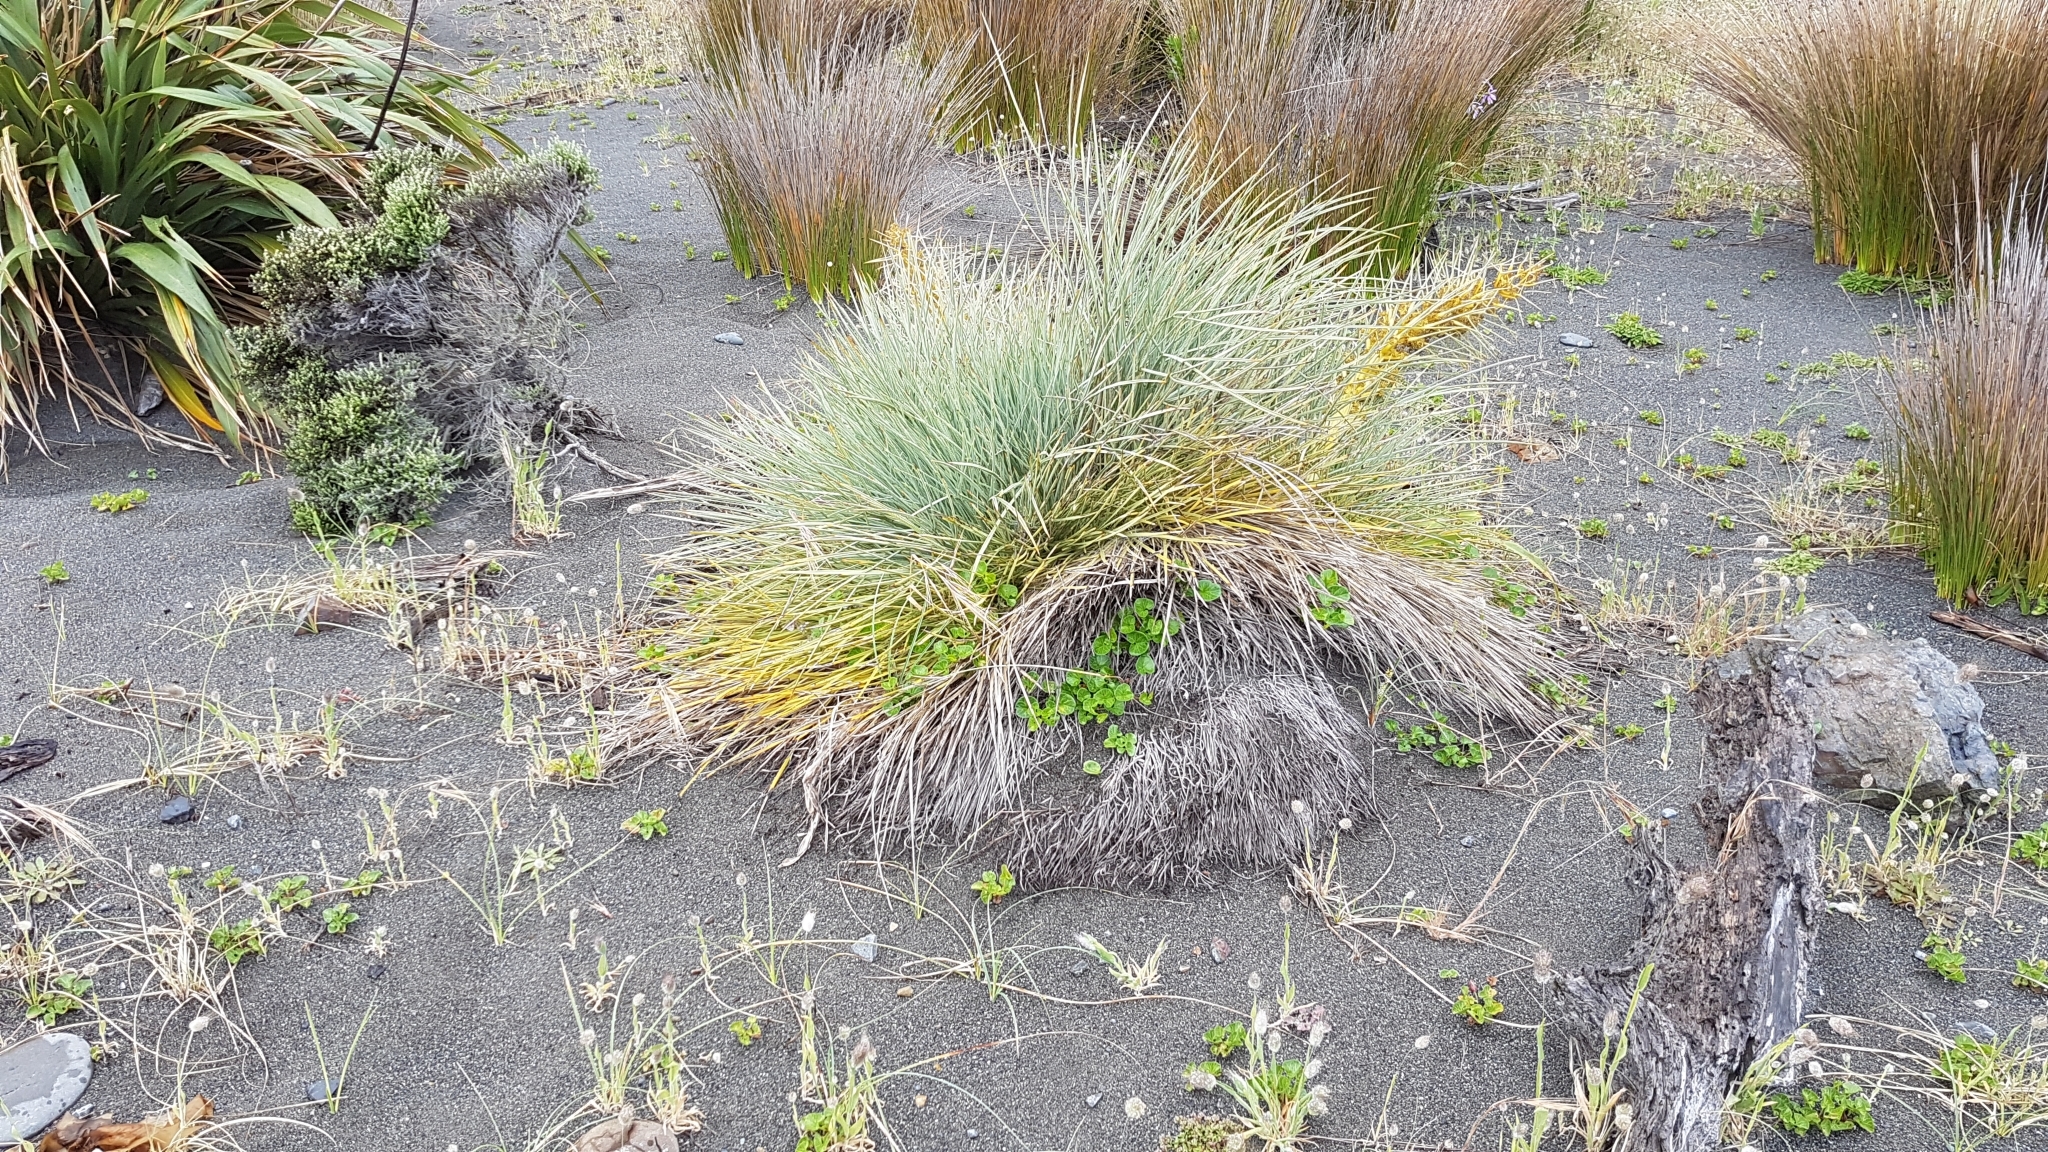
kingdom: Plantae
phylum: Tracheophyta
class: Magnoliopsida
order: Apiales
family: Apiaceae
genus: Aciphylla
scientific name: Aciphylla squarrosa
